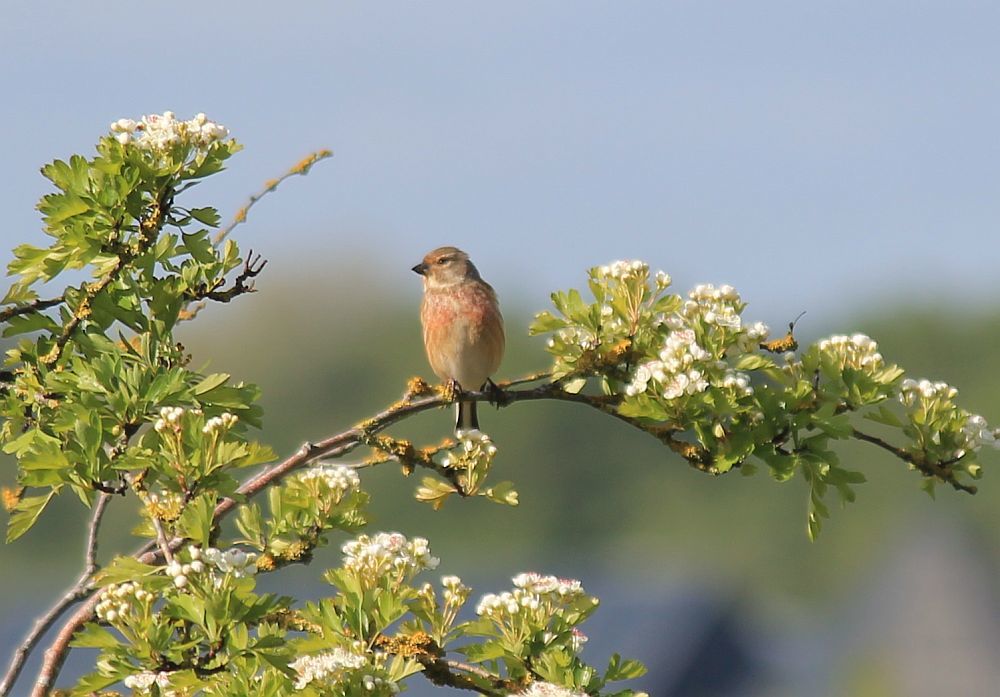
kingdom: Animalia
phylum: Chordata
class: Aves
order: Passeriformes
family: Fringillidae
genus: Linaria
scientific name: Linaria cannabina
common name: Common linnet
